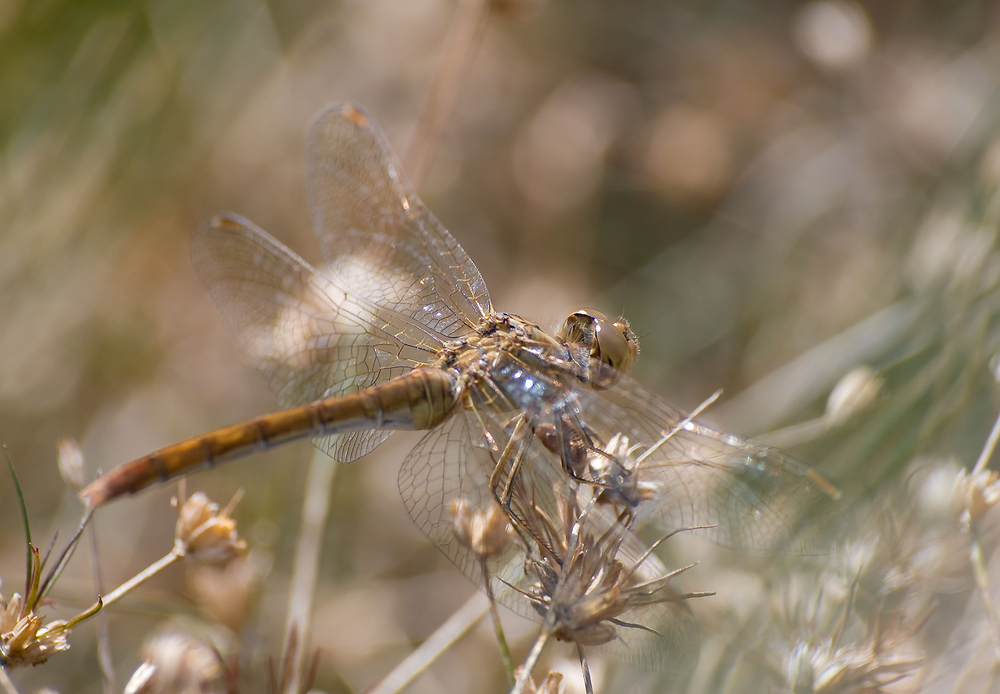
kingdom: Animalia
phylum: Arthropoda
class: Insecta
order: Odonata
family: Libellulidae
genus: Sympetrum
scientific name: Sympetrum meridionale
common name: Southern darter
